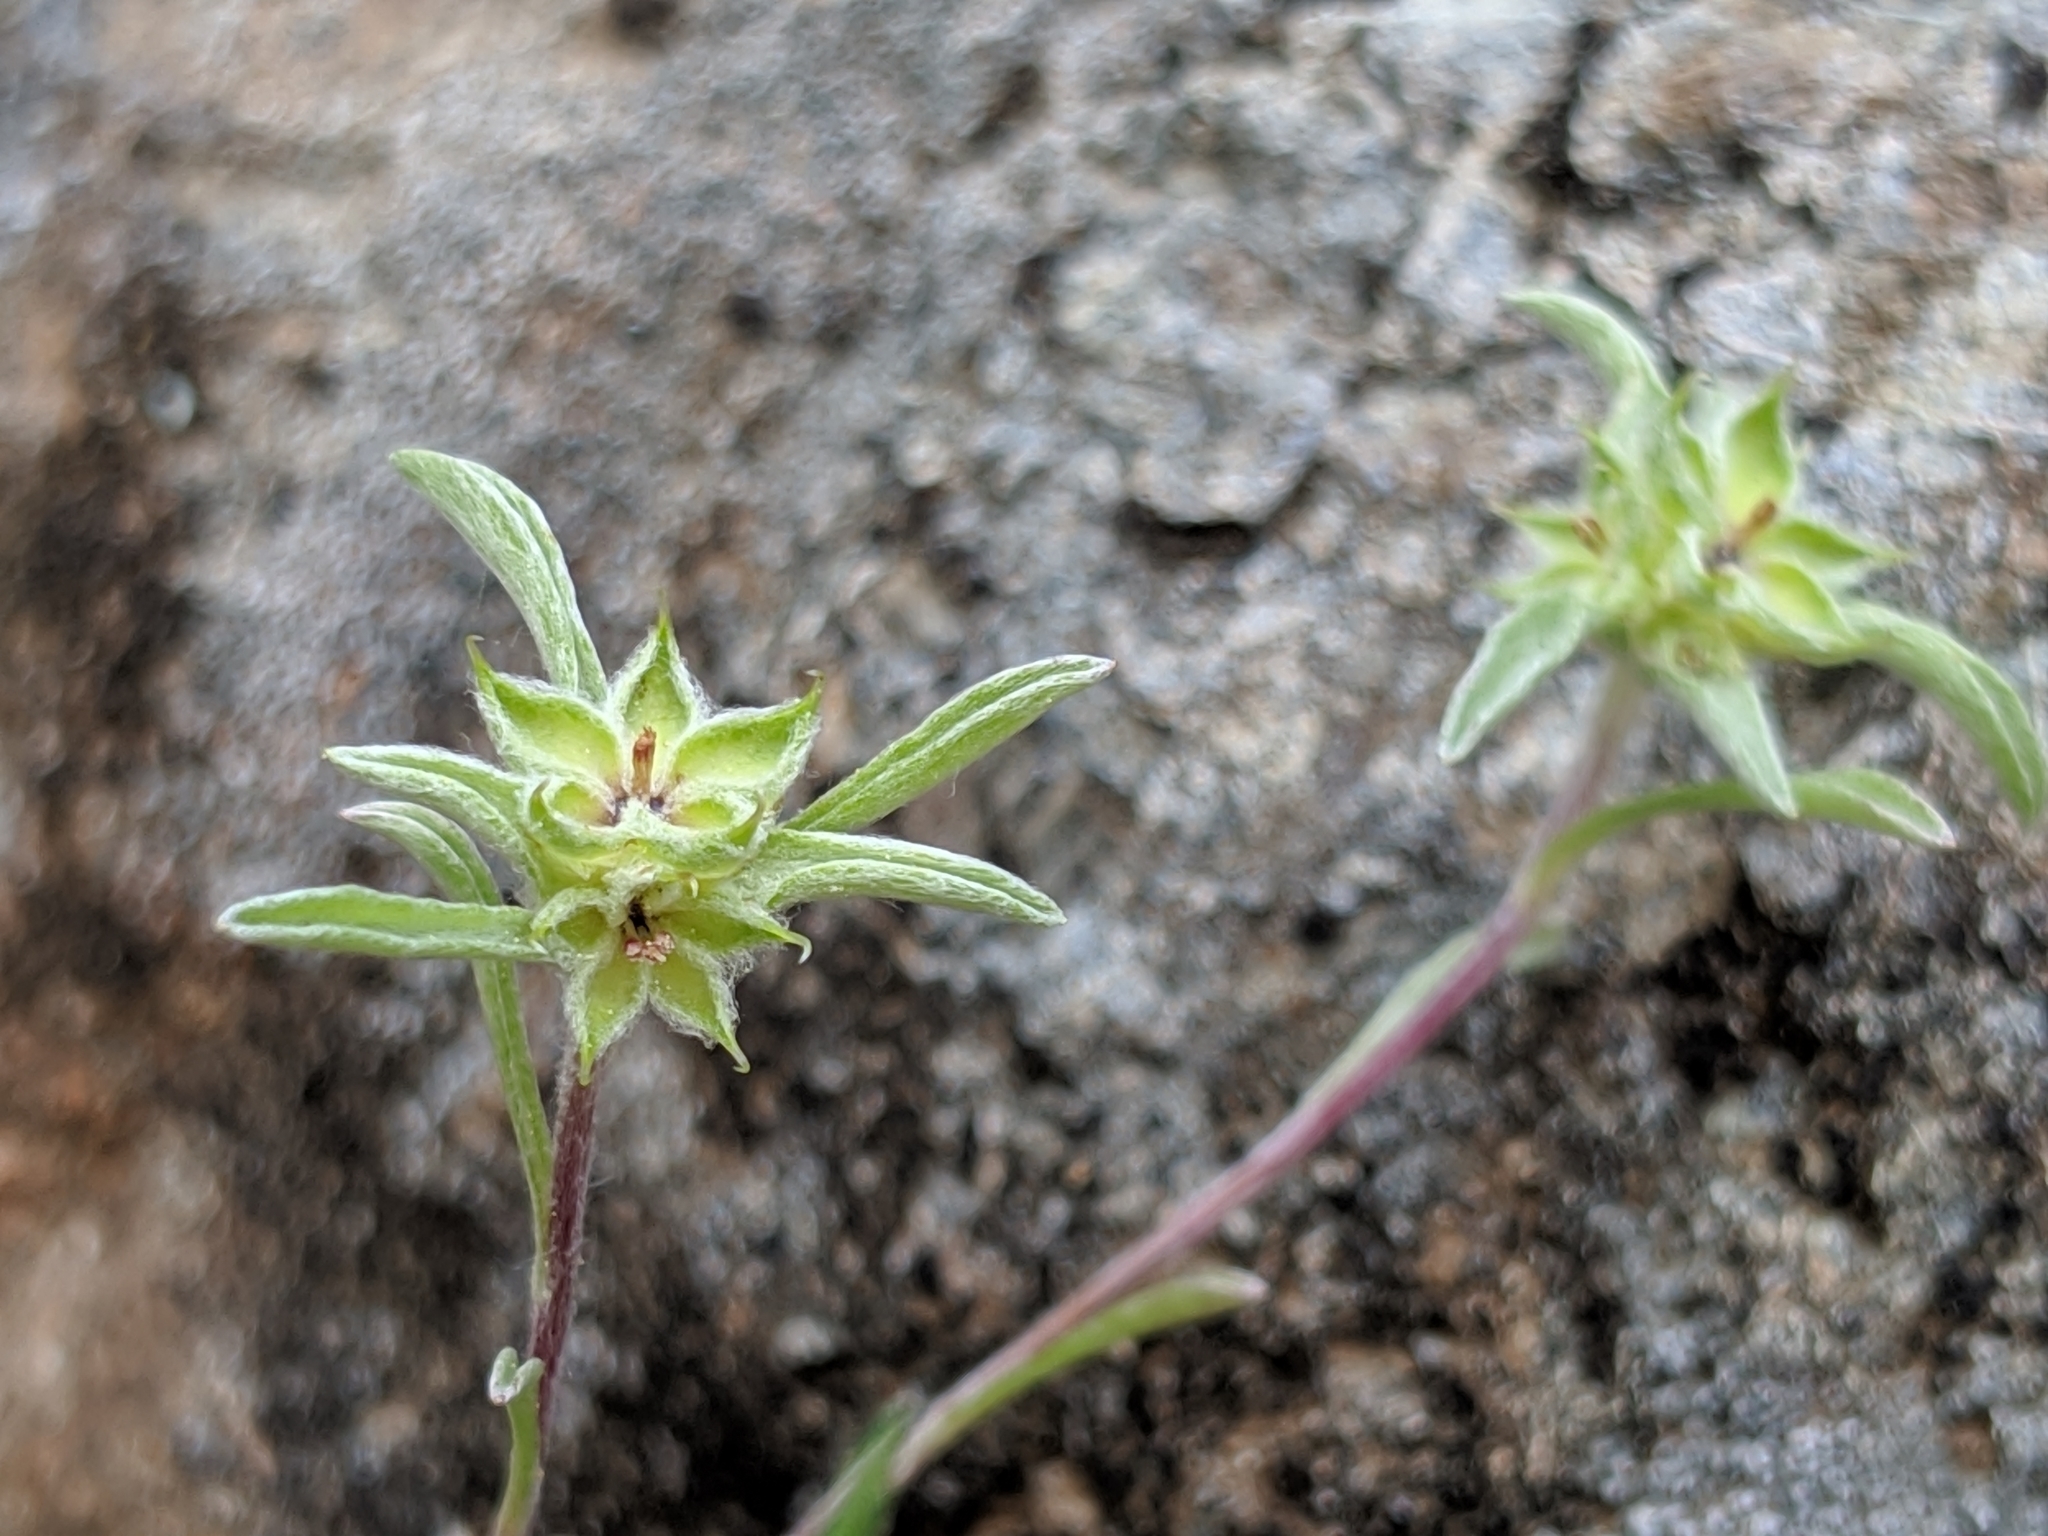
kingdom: Plantae
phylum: Tracheophyta
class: Magnoliopsida
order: Asterales
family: Asteraceae
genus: Ancistrocarphus
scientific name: Ancistrocarphus filagineus
